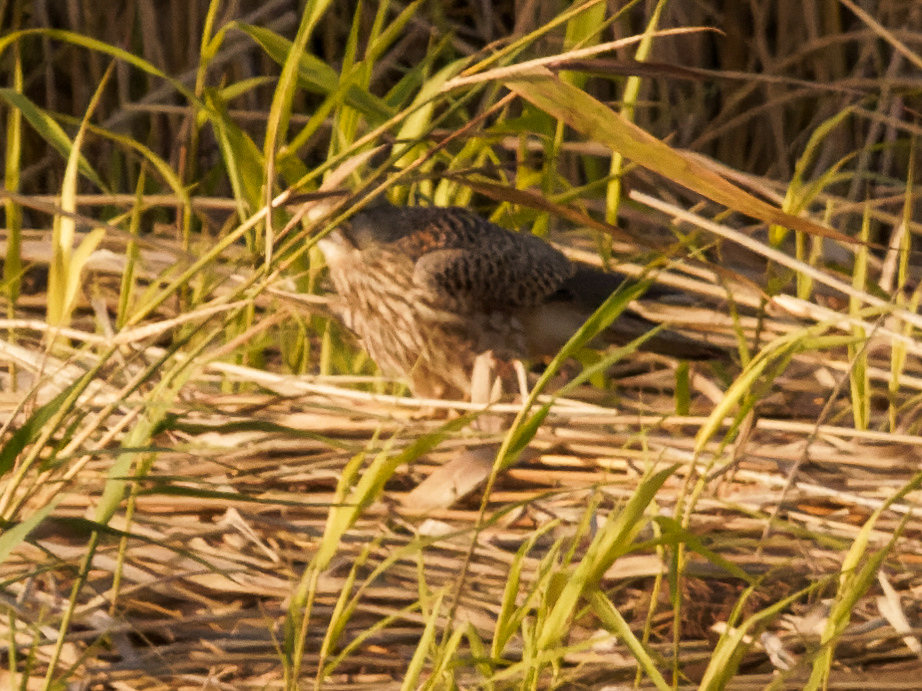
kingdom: Animalia
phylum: Chordata
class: Aves
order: Falconiformes
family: Falconidae
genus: Falco
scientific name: Falco tinnunculus
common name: Common kestrel
